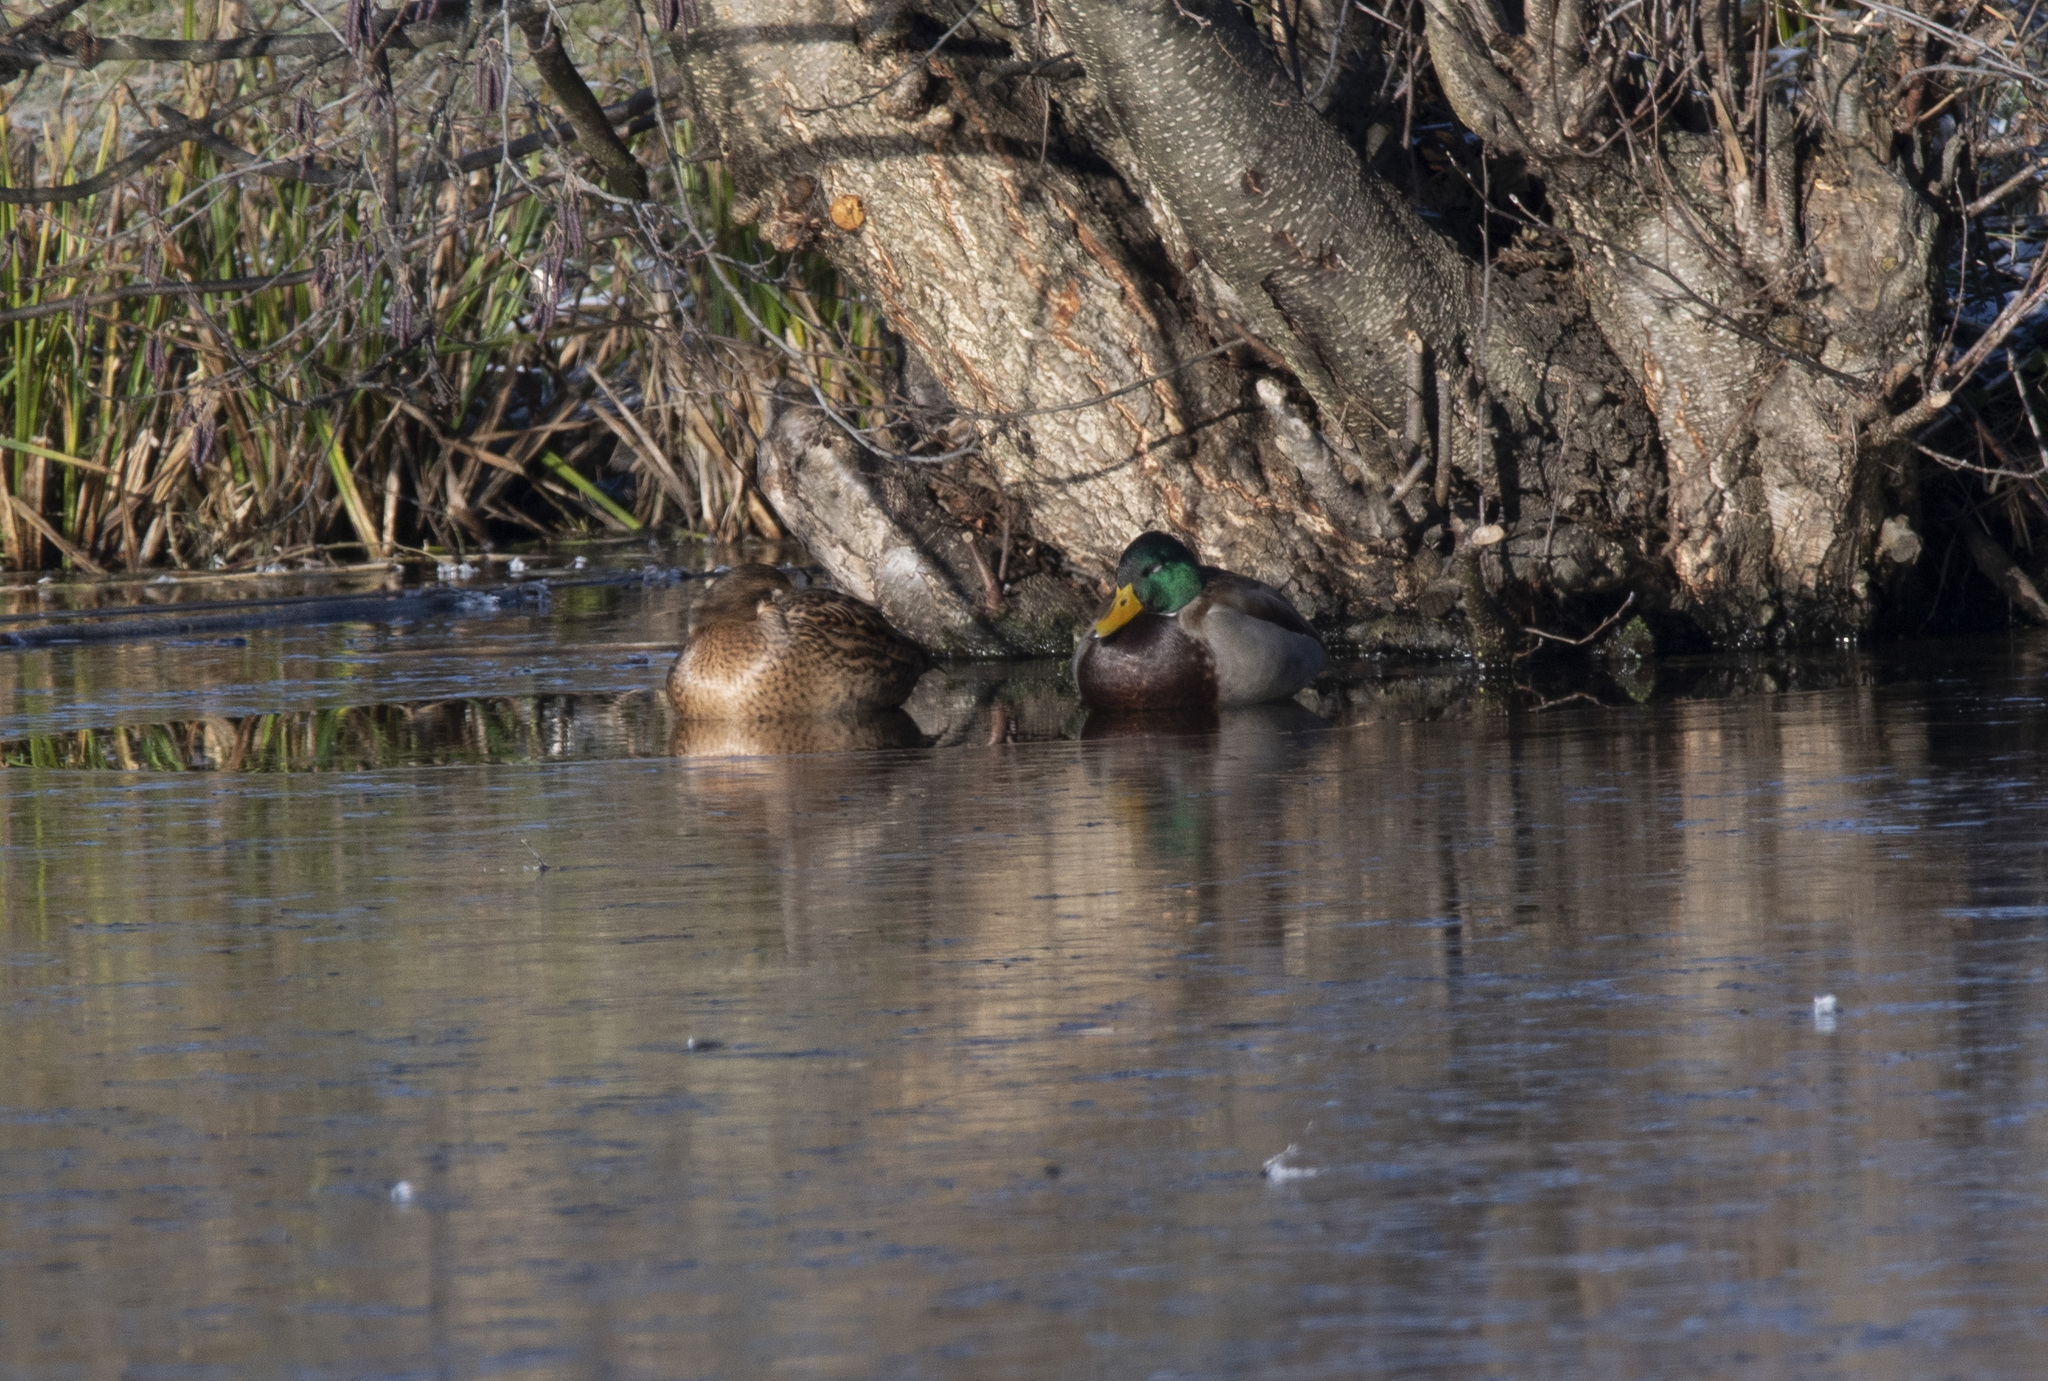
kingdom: Animalia
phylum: Chordata
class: Aves
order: Anseriformes
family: Anatidae
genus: Anas
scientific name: Anas platyrhynchos
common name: Mallard
